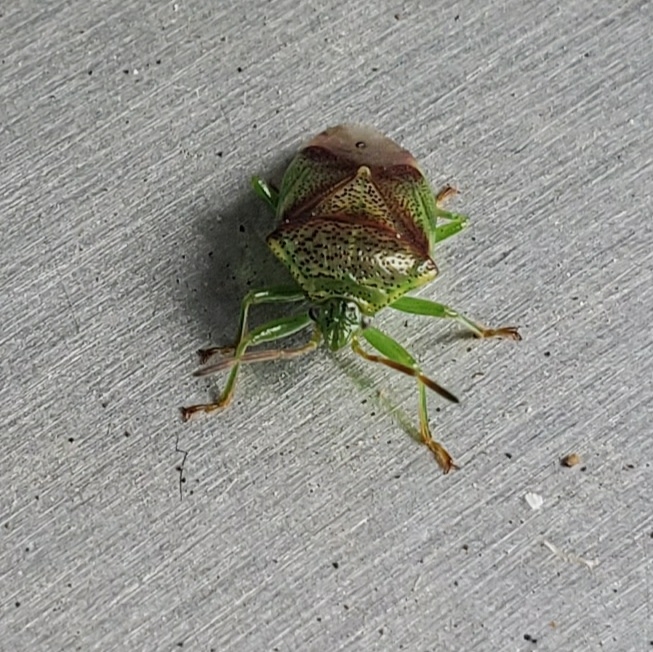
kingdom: Animalia
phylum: Arthropoda
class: Insecta
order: Hemiptera
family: Acanthosomatidae
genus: Elasmostethus
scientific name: Elasmostethus cruciatus
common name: Red-cross shield bug
